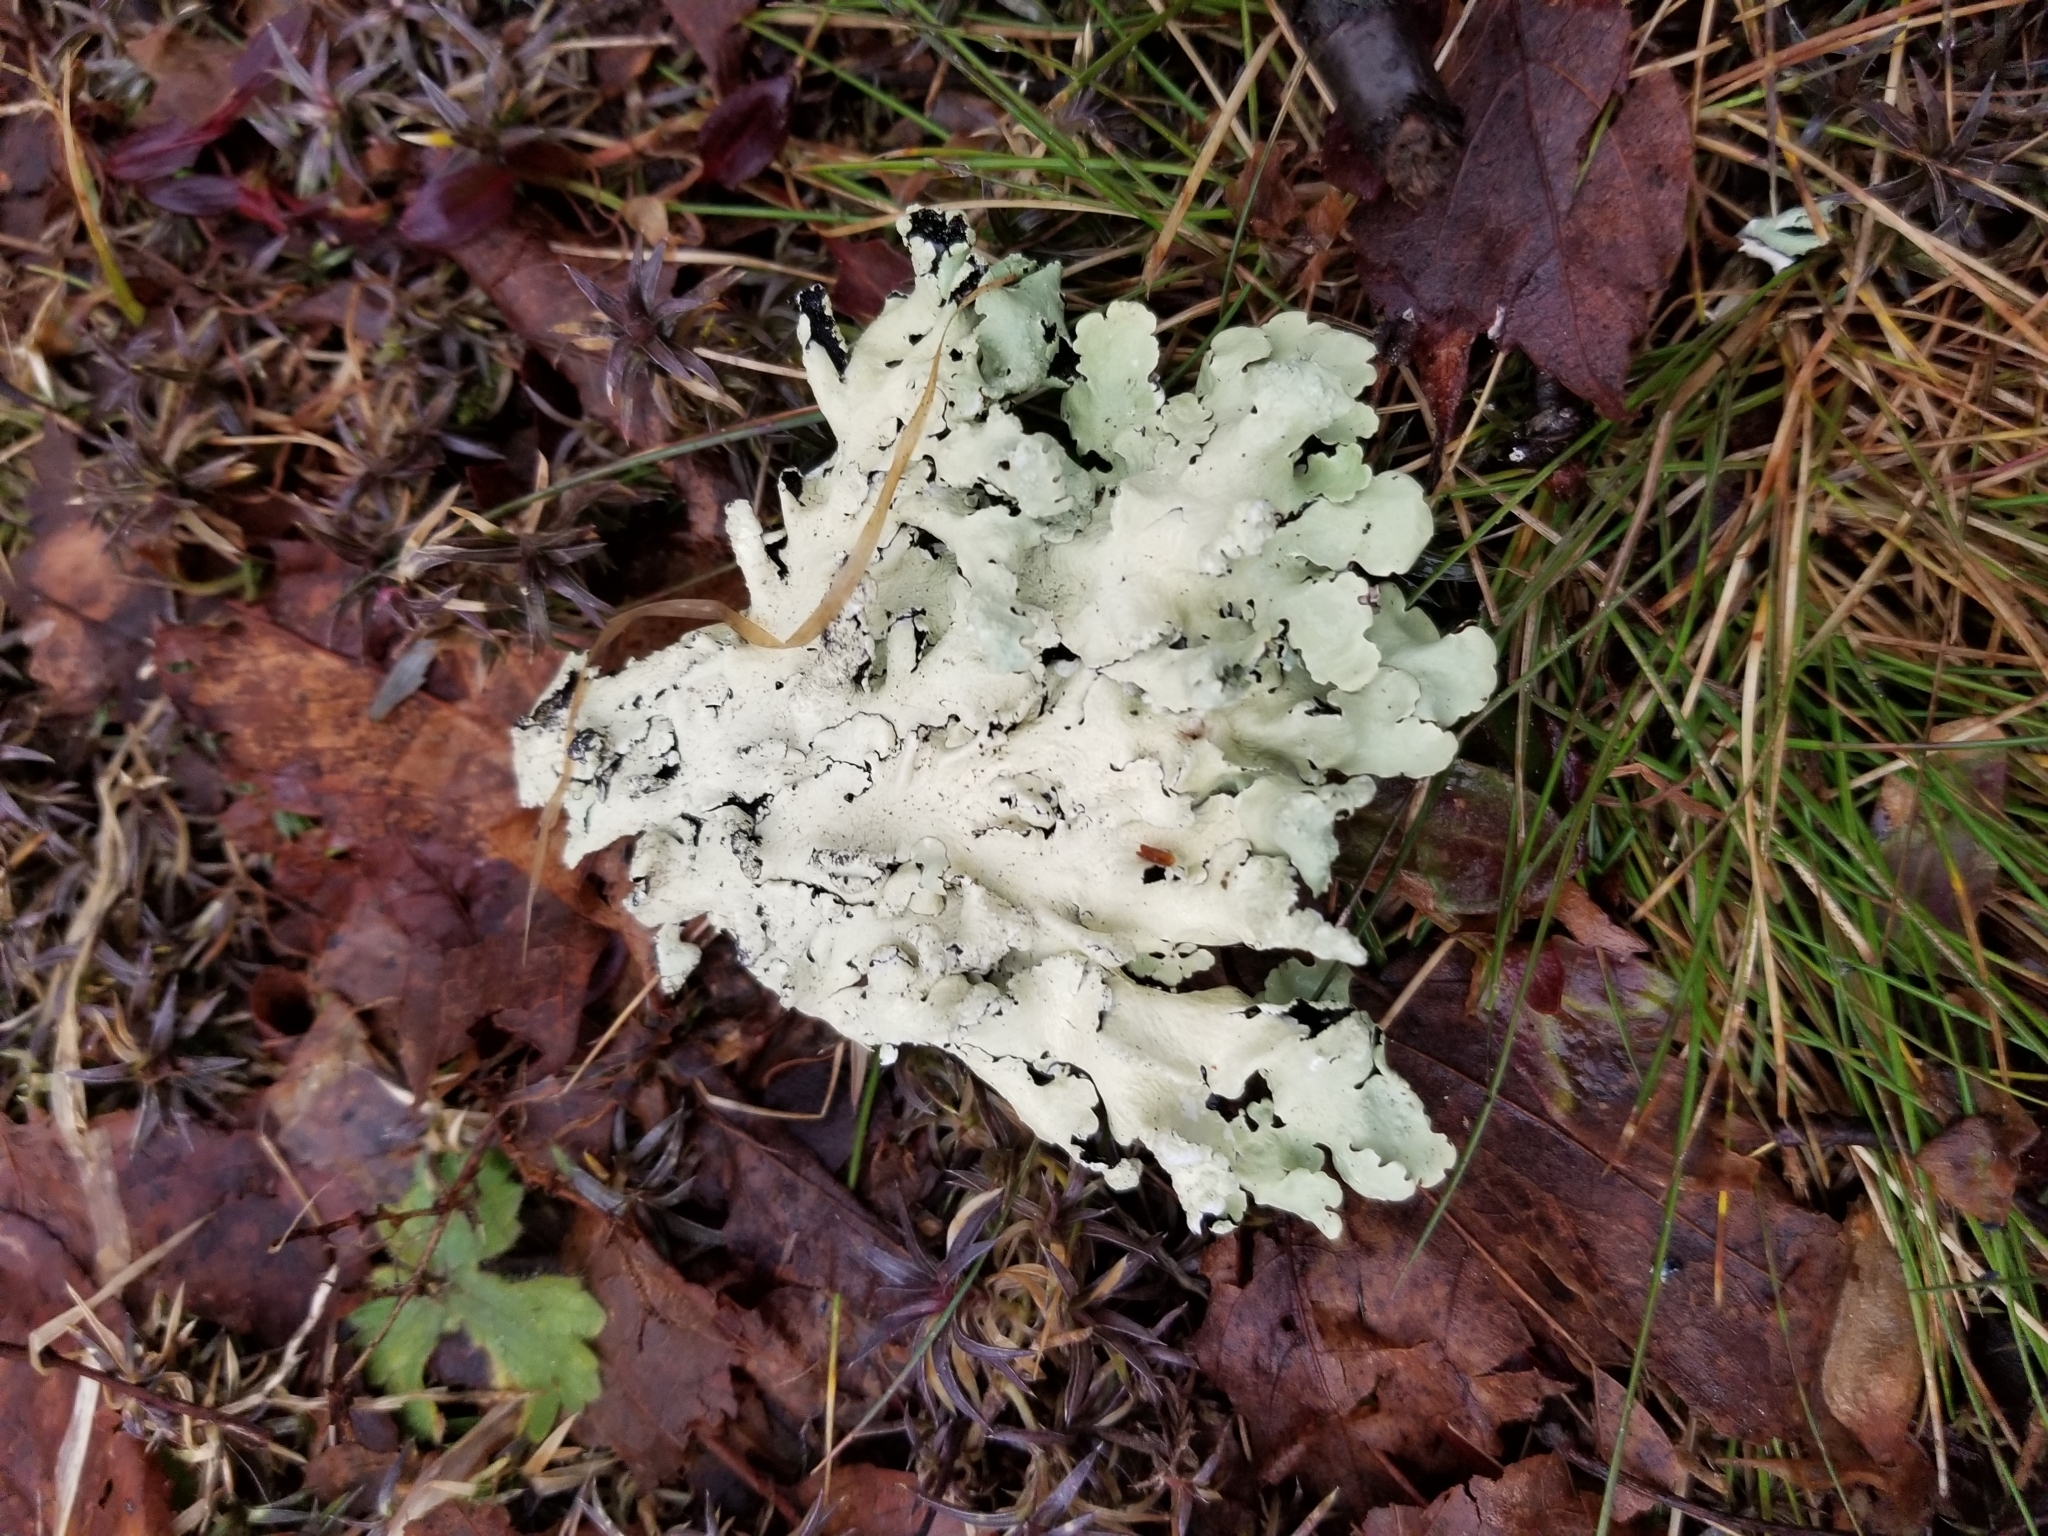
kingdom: Fungi
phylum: Ascomycota
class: Lecanoromycetes
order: Lecanorales
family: Parmeliaceae
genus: Flavoparmelia
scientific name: Flavoparmelia caperata
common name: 40-mile per hour lichen
